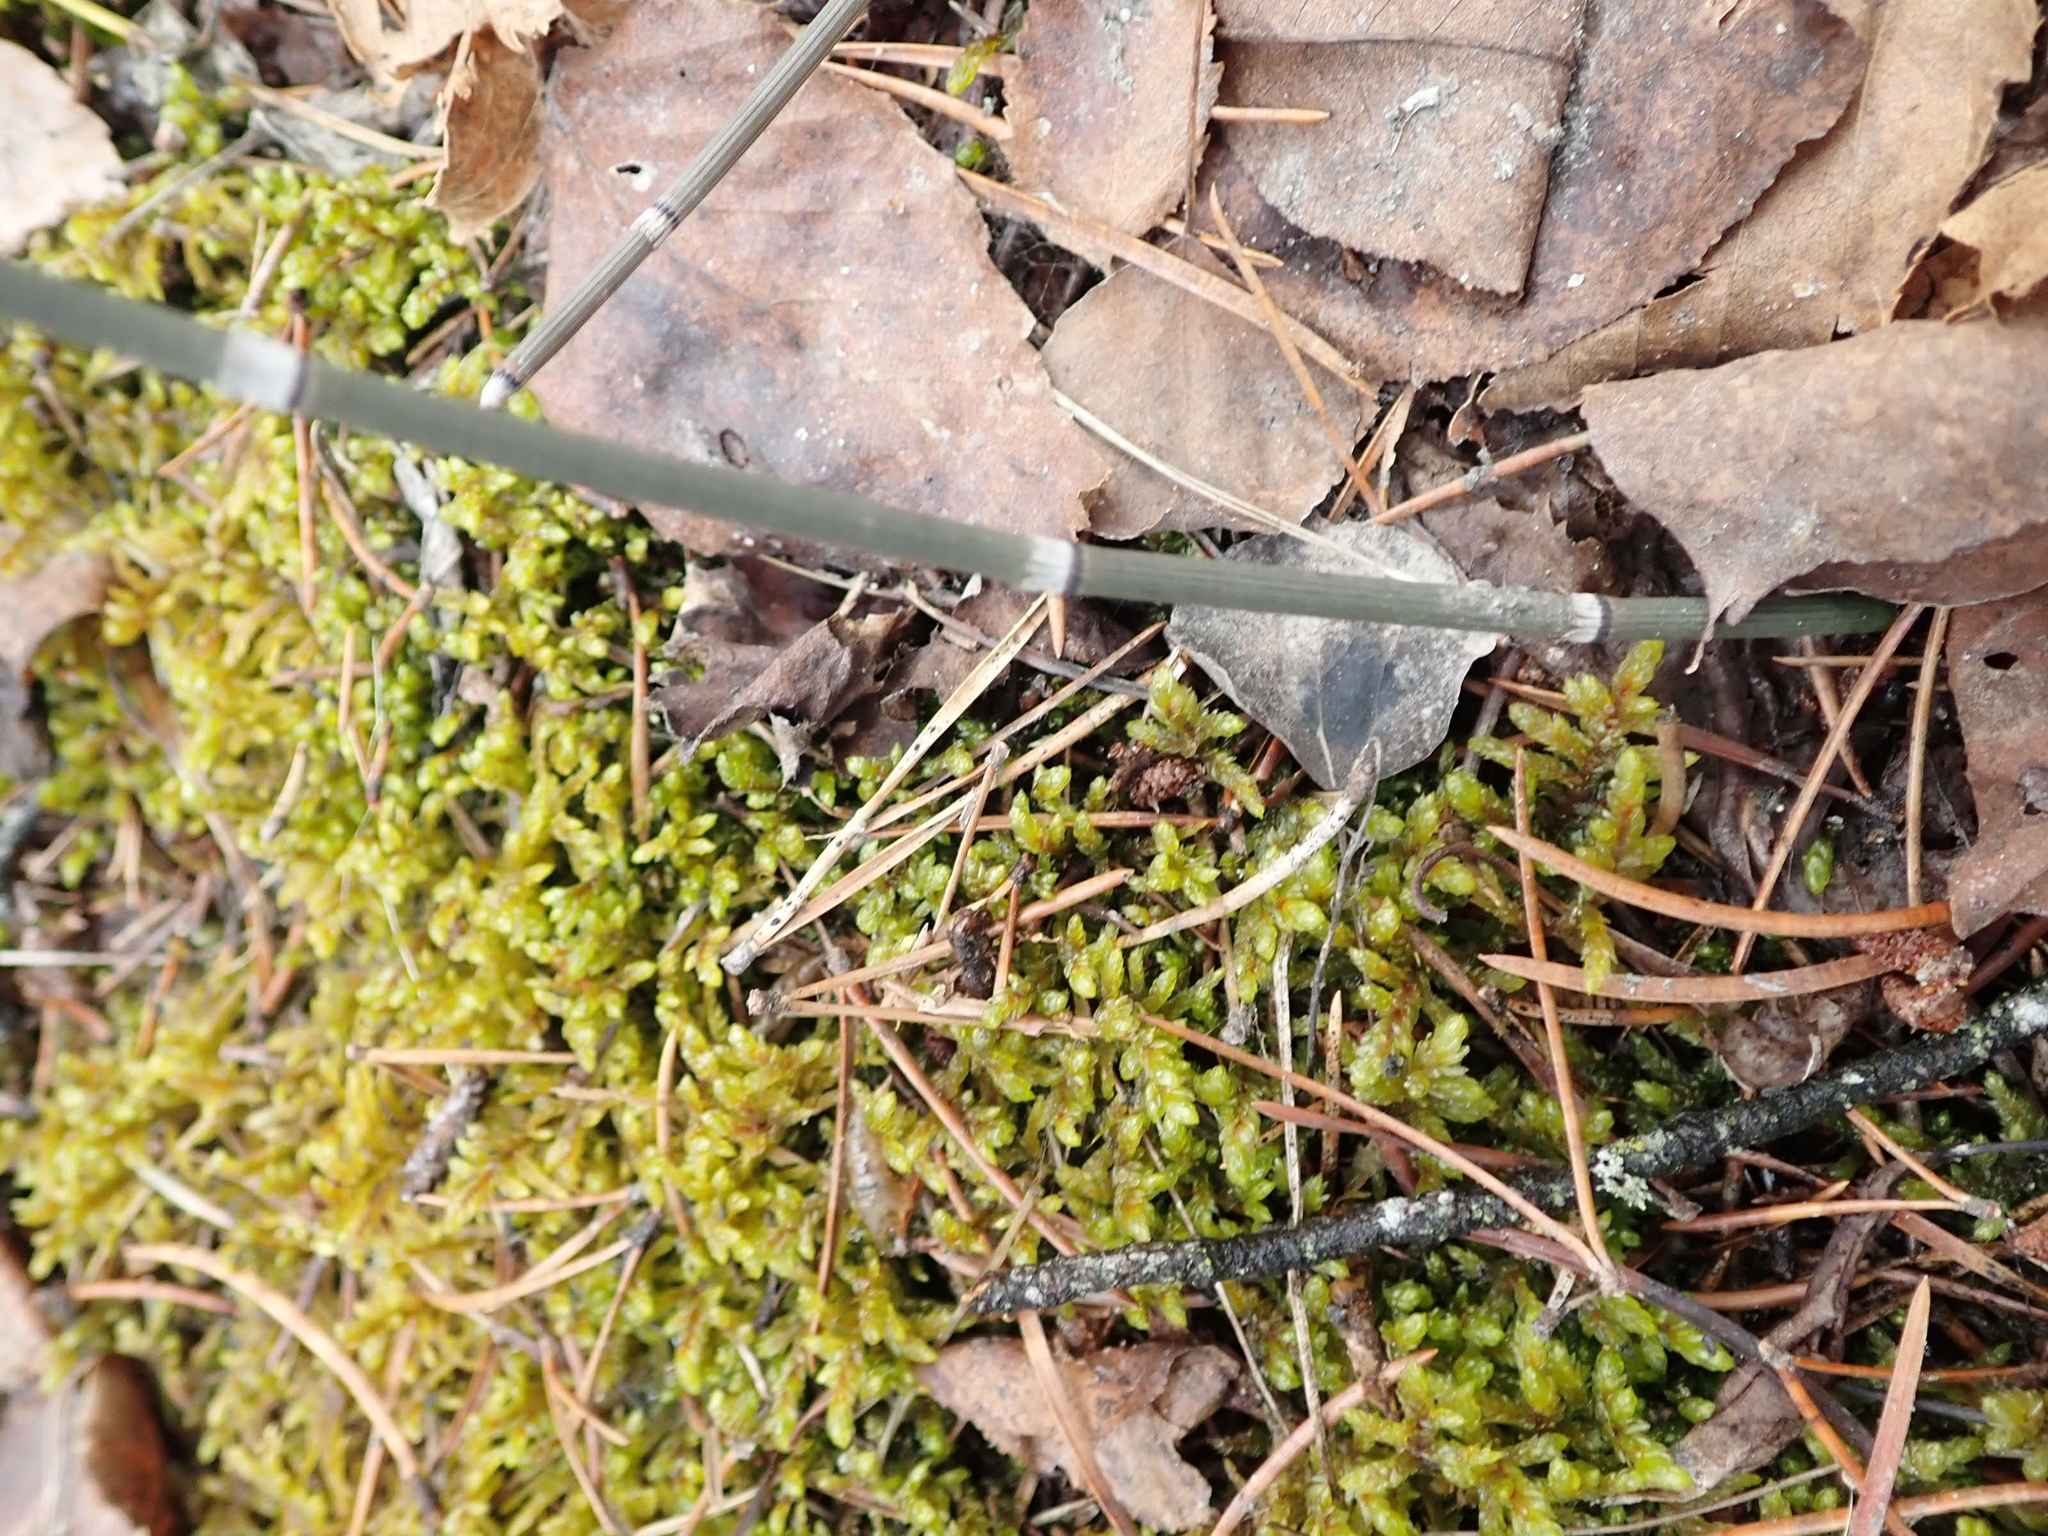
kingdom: Plantae
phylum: Tracheophyta
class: Polypodiopsida
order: Equisetales
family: Equisetaceae
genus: Equisetum
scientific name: Equisetum praealtum
